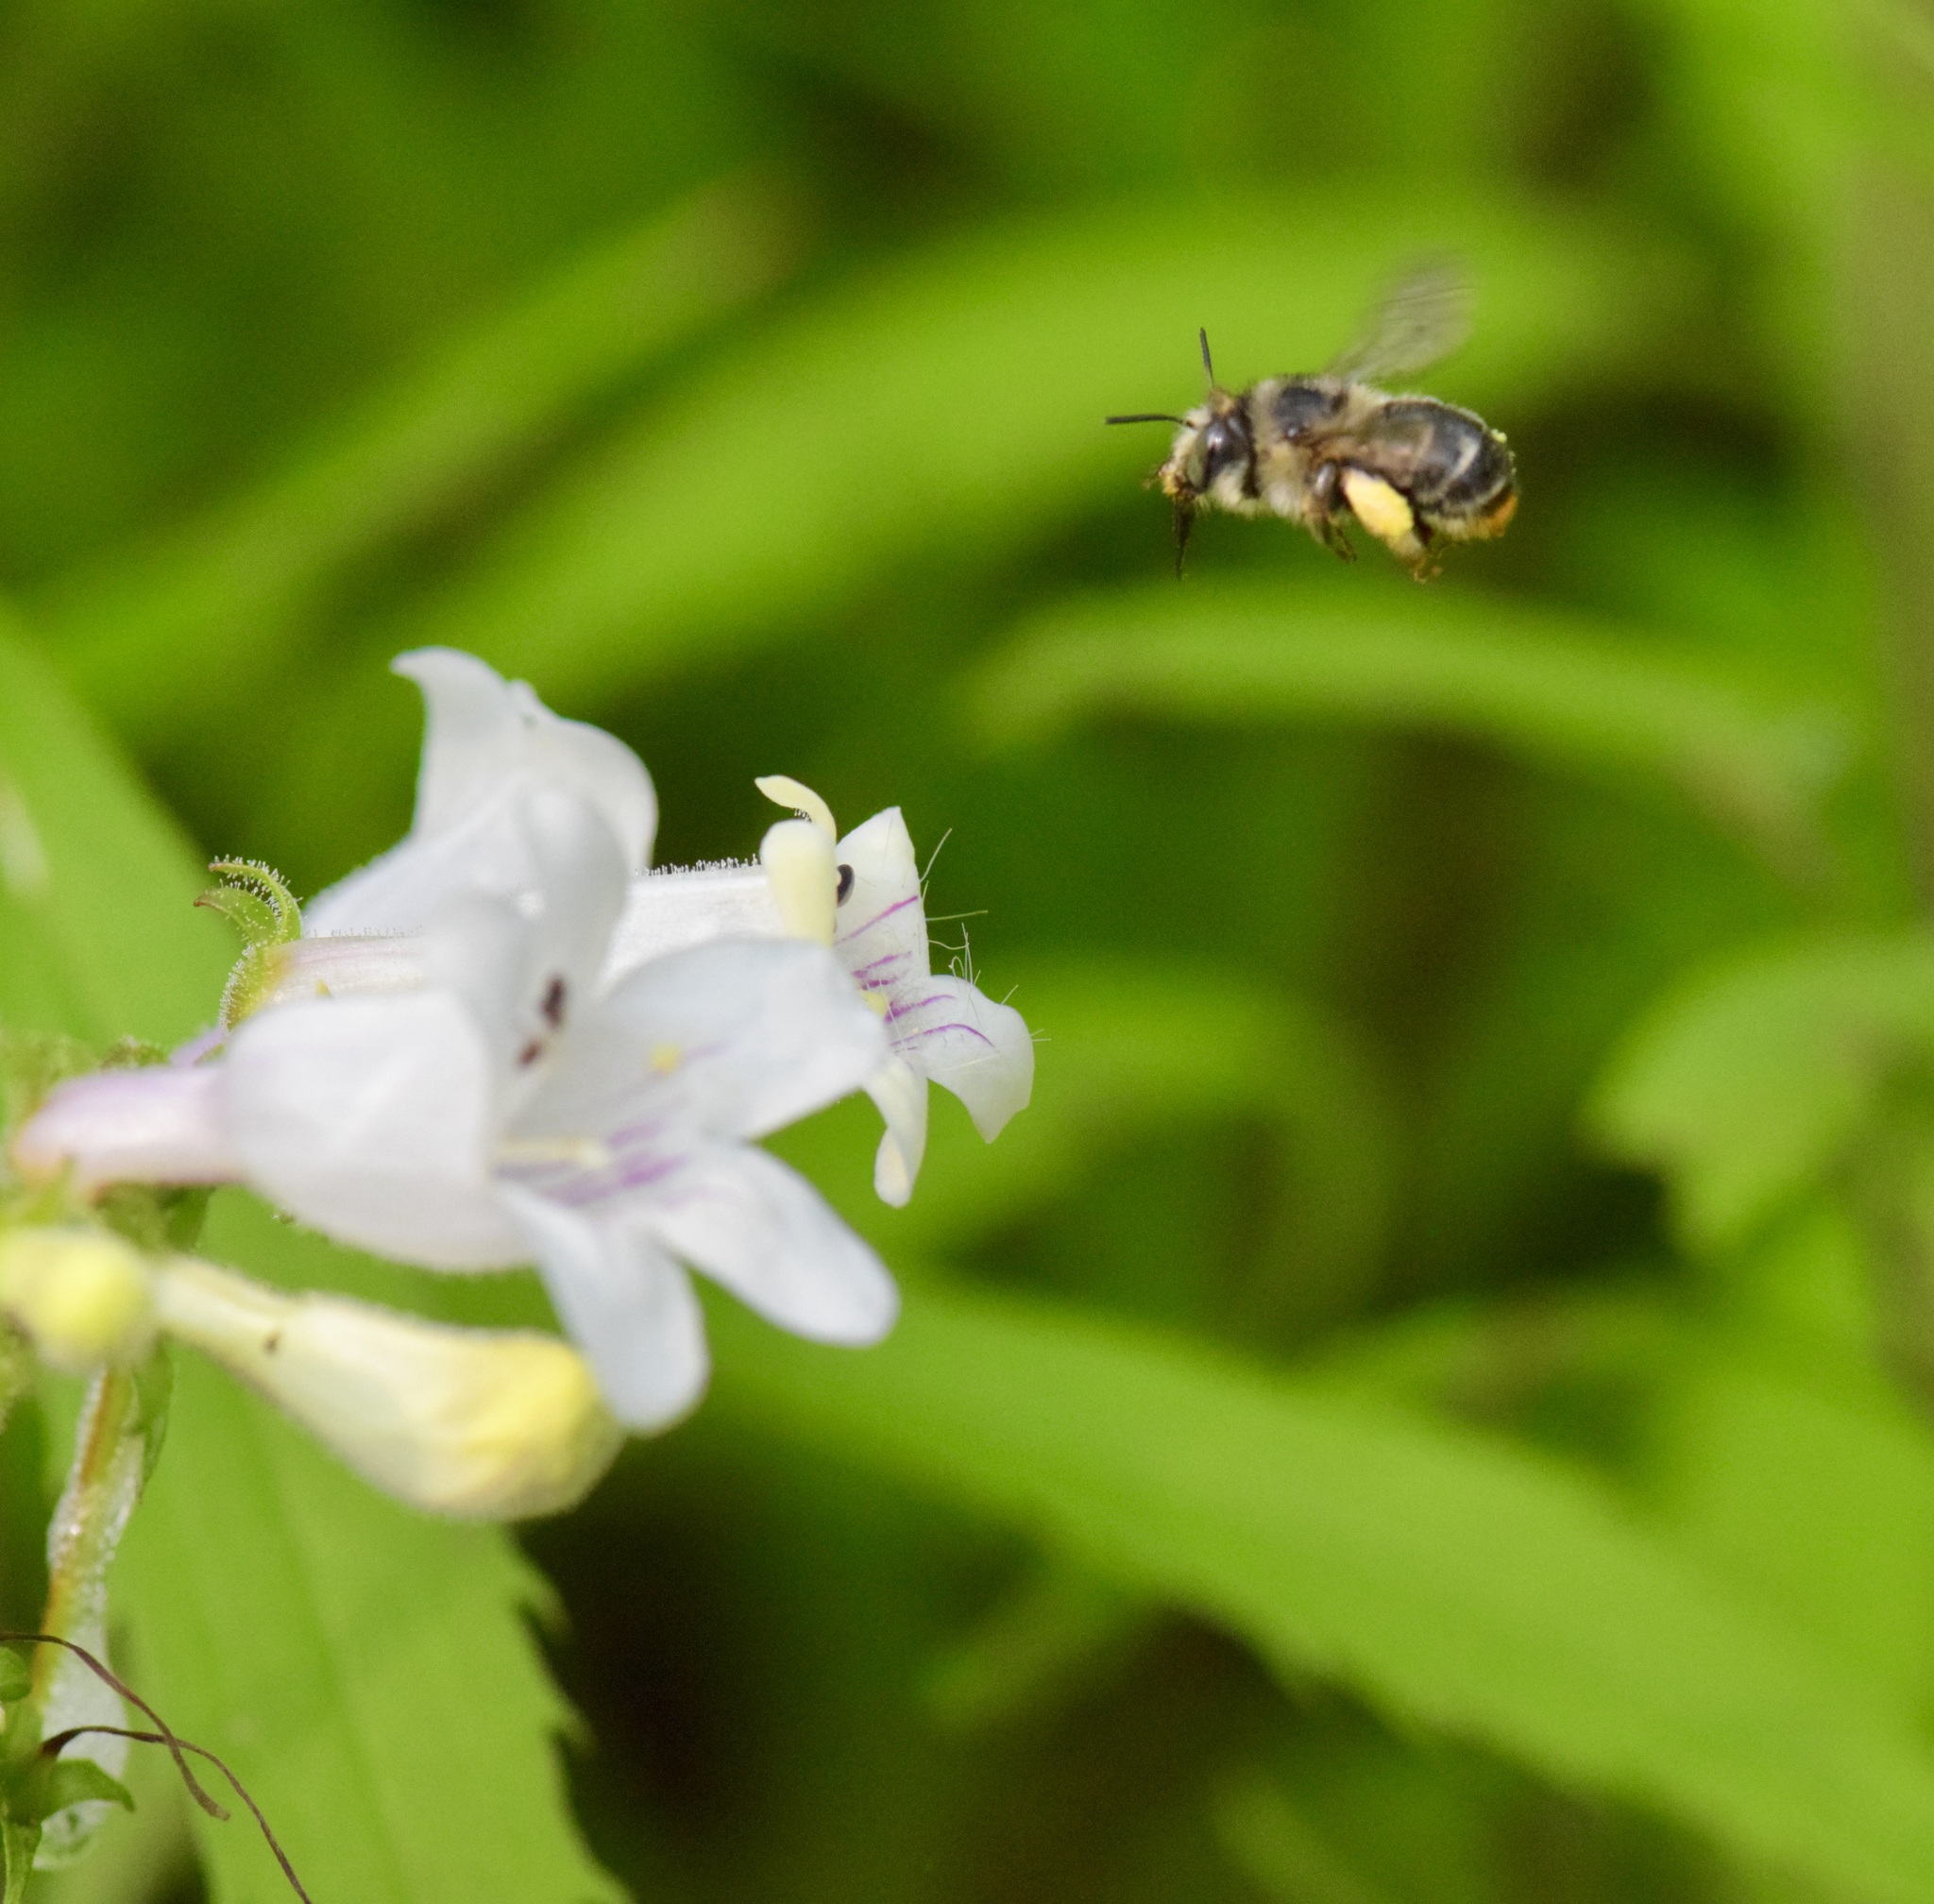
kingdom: Animalia
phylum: Arthropoda
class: Insecta
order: Hymenoptera
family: Apidae
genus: Anthophora
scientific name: Anthophora terminalis
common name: Orange-tipped wood-digger bee
